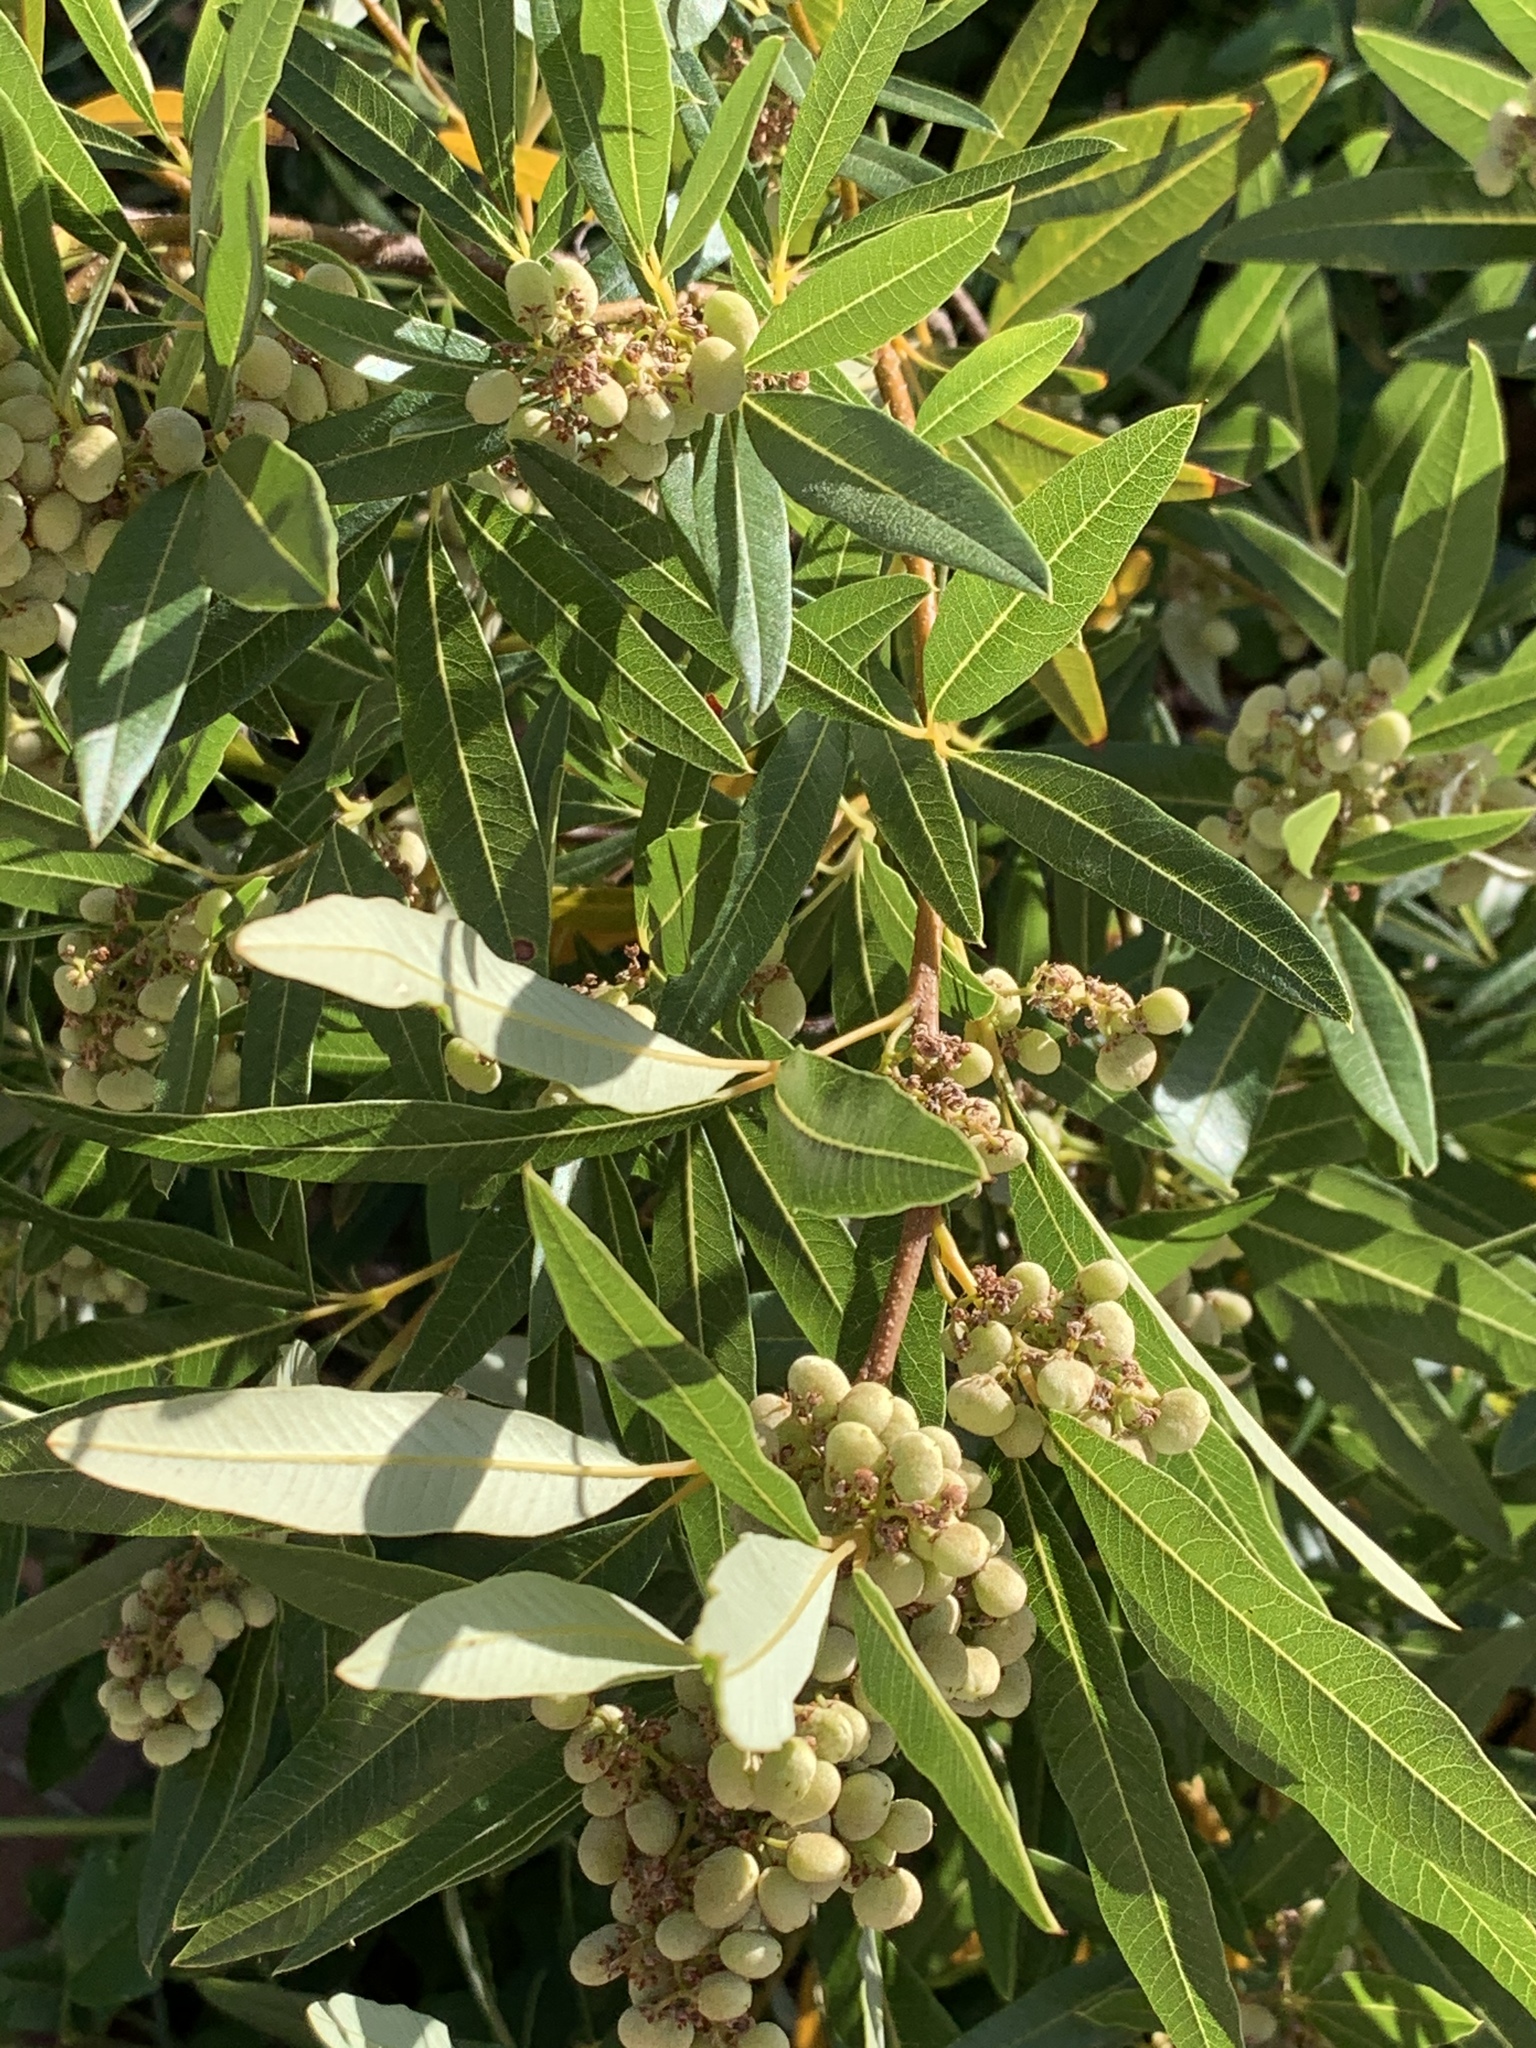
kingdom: Plantae
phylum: Tracheophyta
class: Magnoliopsida
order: Sapindales
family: Anacardiaceae
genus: Searsia
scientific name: Searsia angustifolia
